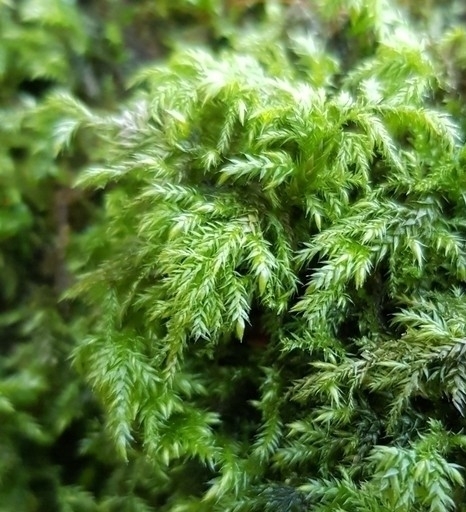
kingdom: Plantae
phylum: Bryophyta
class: Bryopsida
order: Hypnales
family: Lembophyllaceae
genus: Pseudisothecium
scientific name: Pseudisothecium myosuroides
